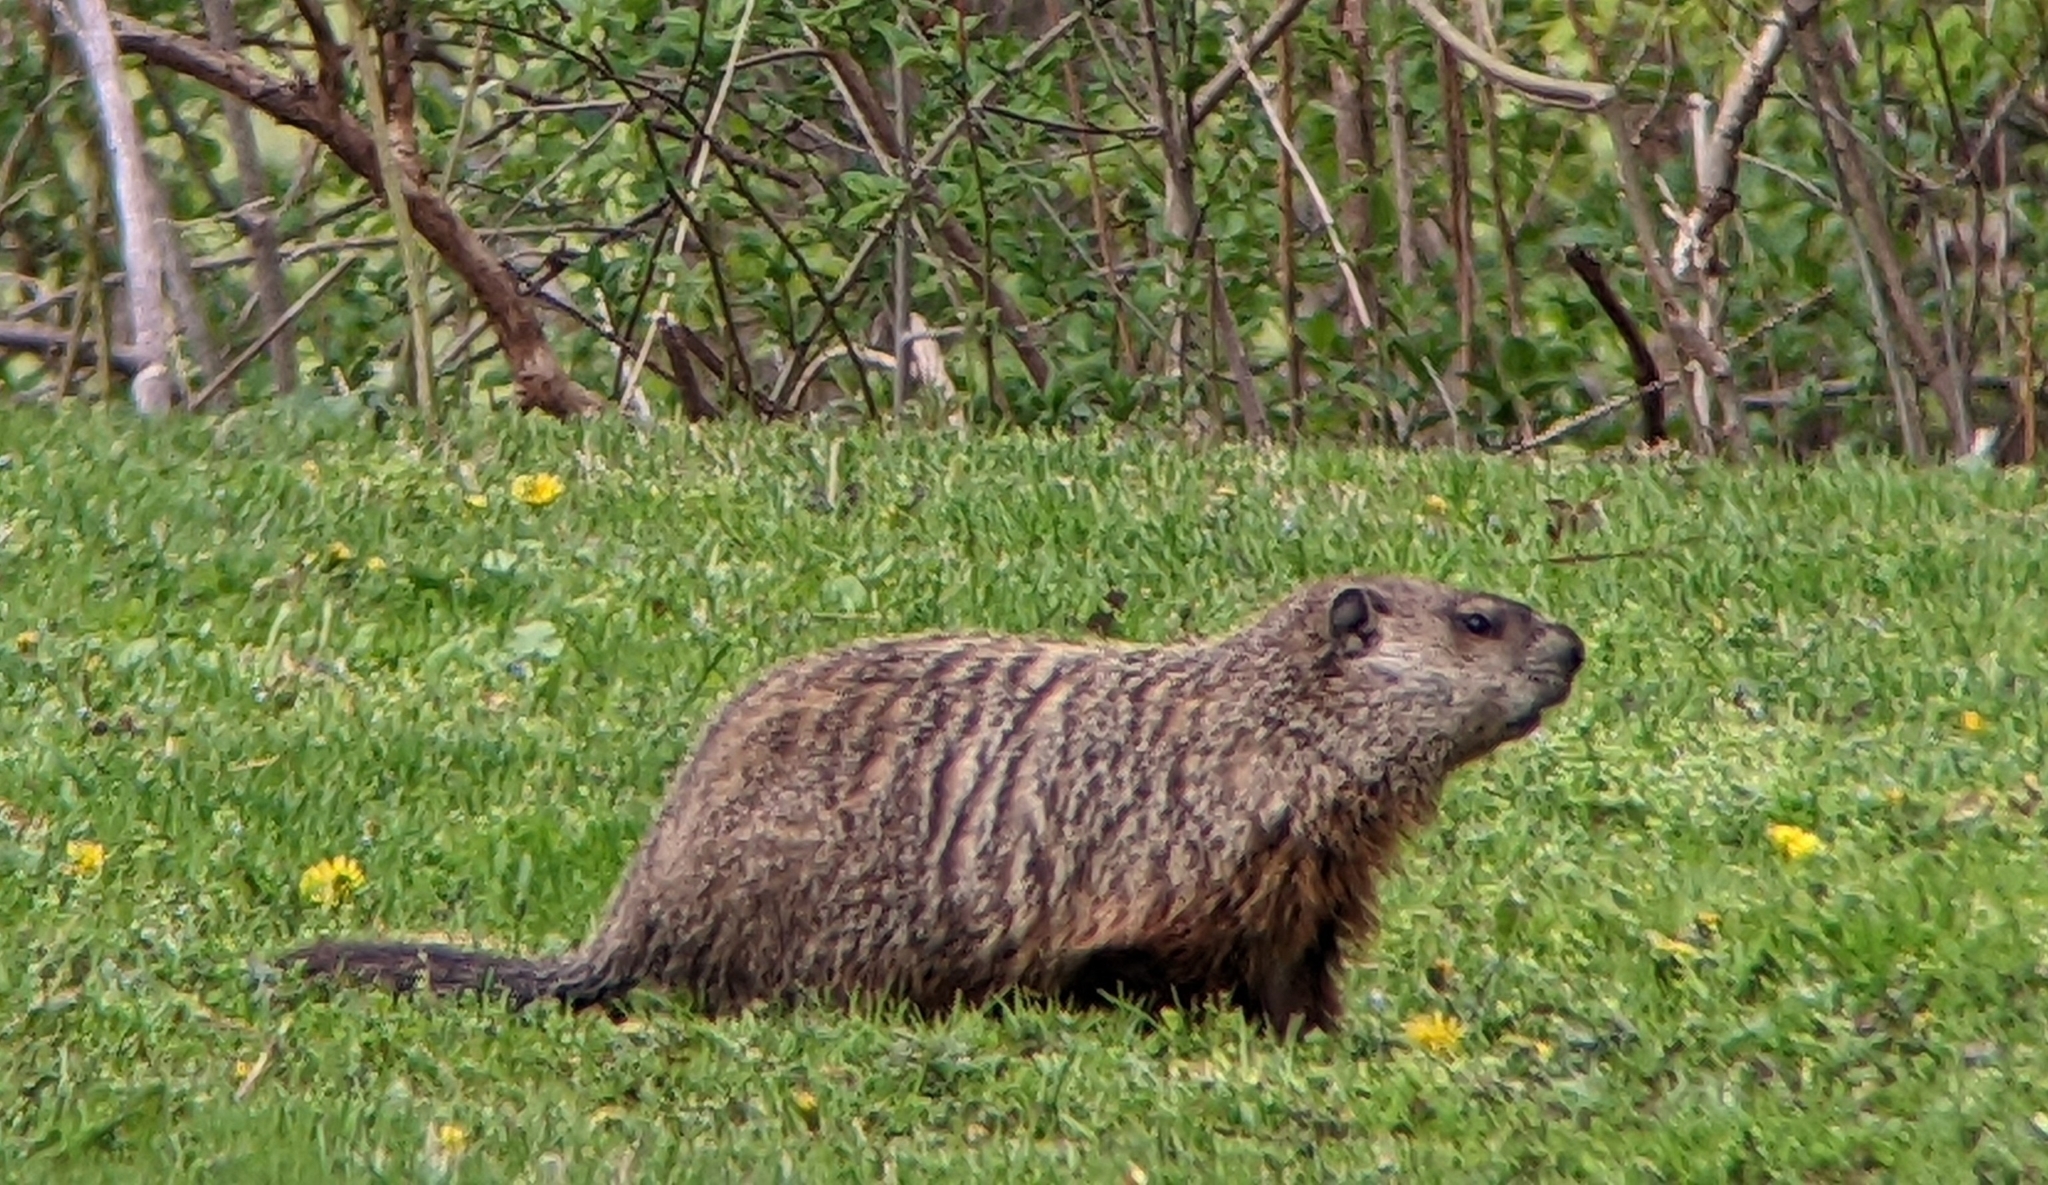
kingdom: Animalia
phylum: Chordata
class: Mammalia
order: Rodentia
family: Sciuridae
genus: Marmota
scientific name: Marmota monax
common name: Groundhog
